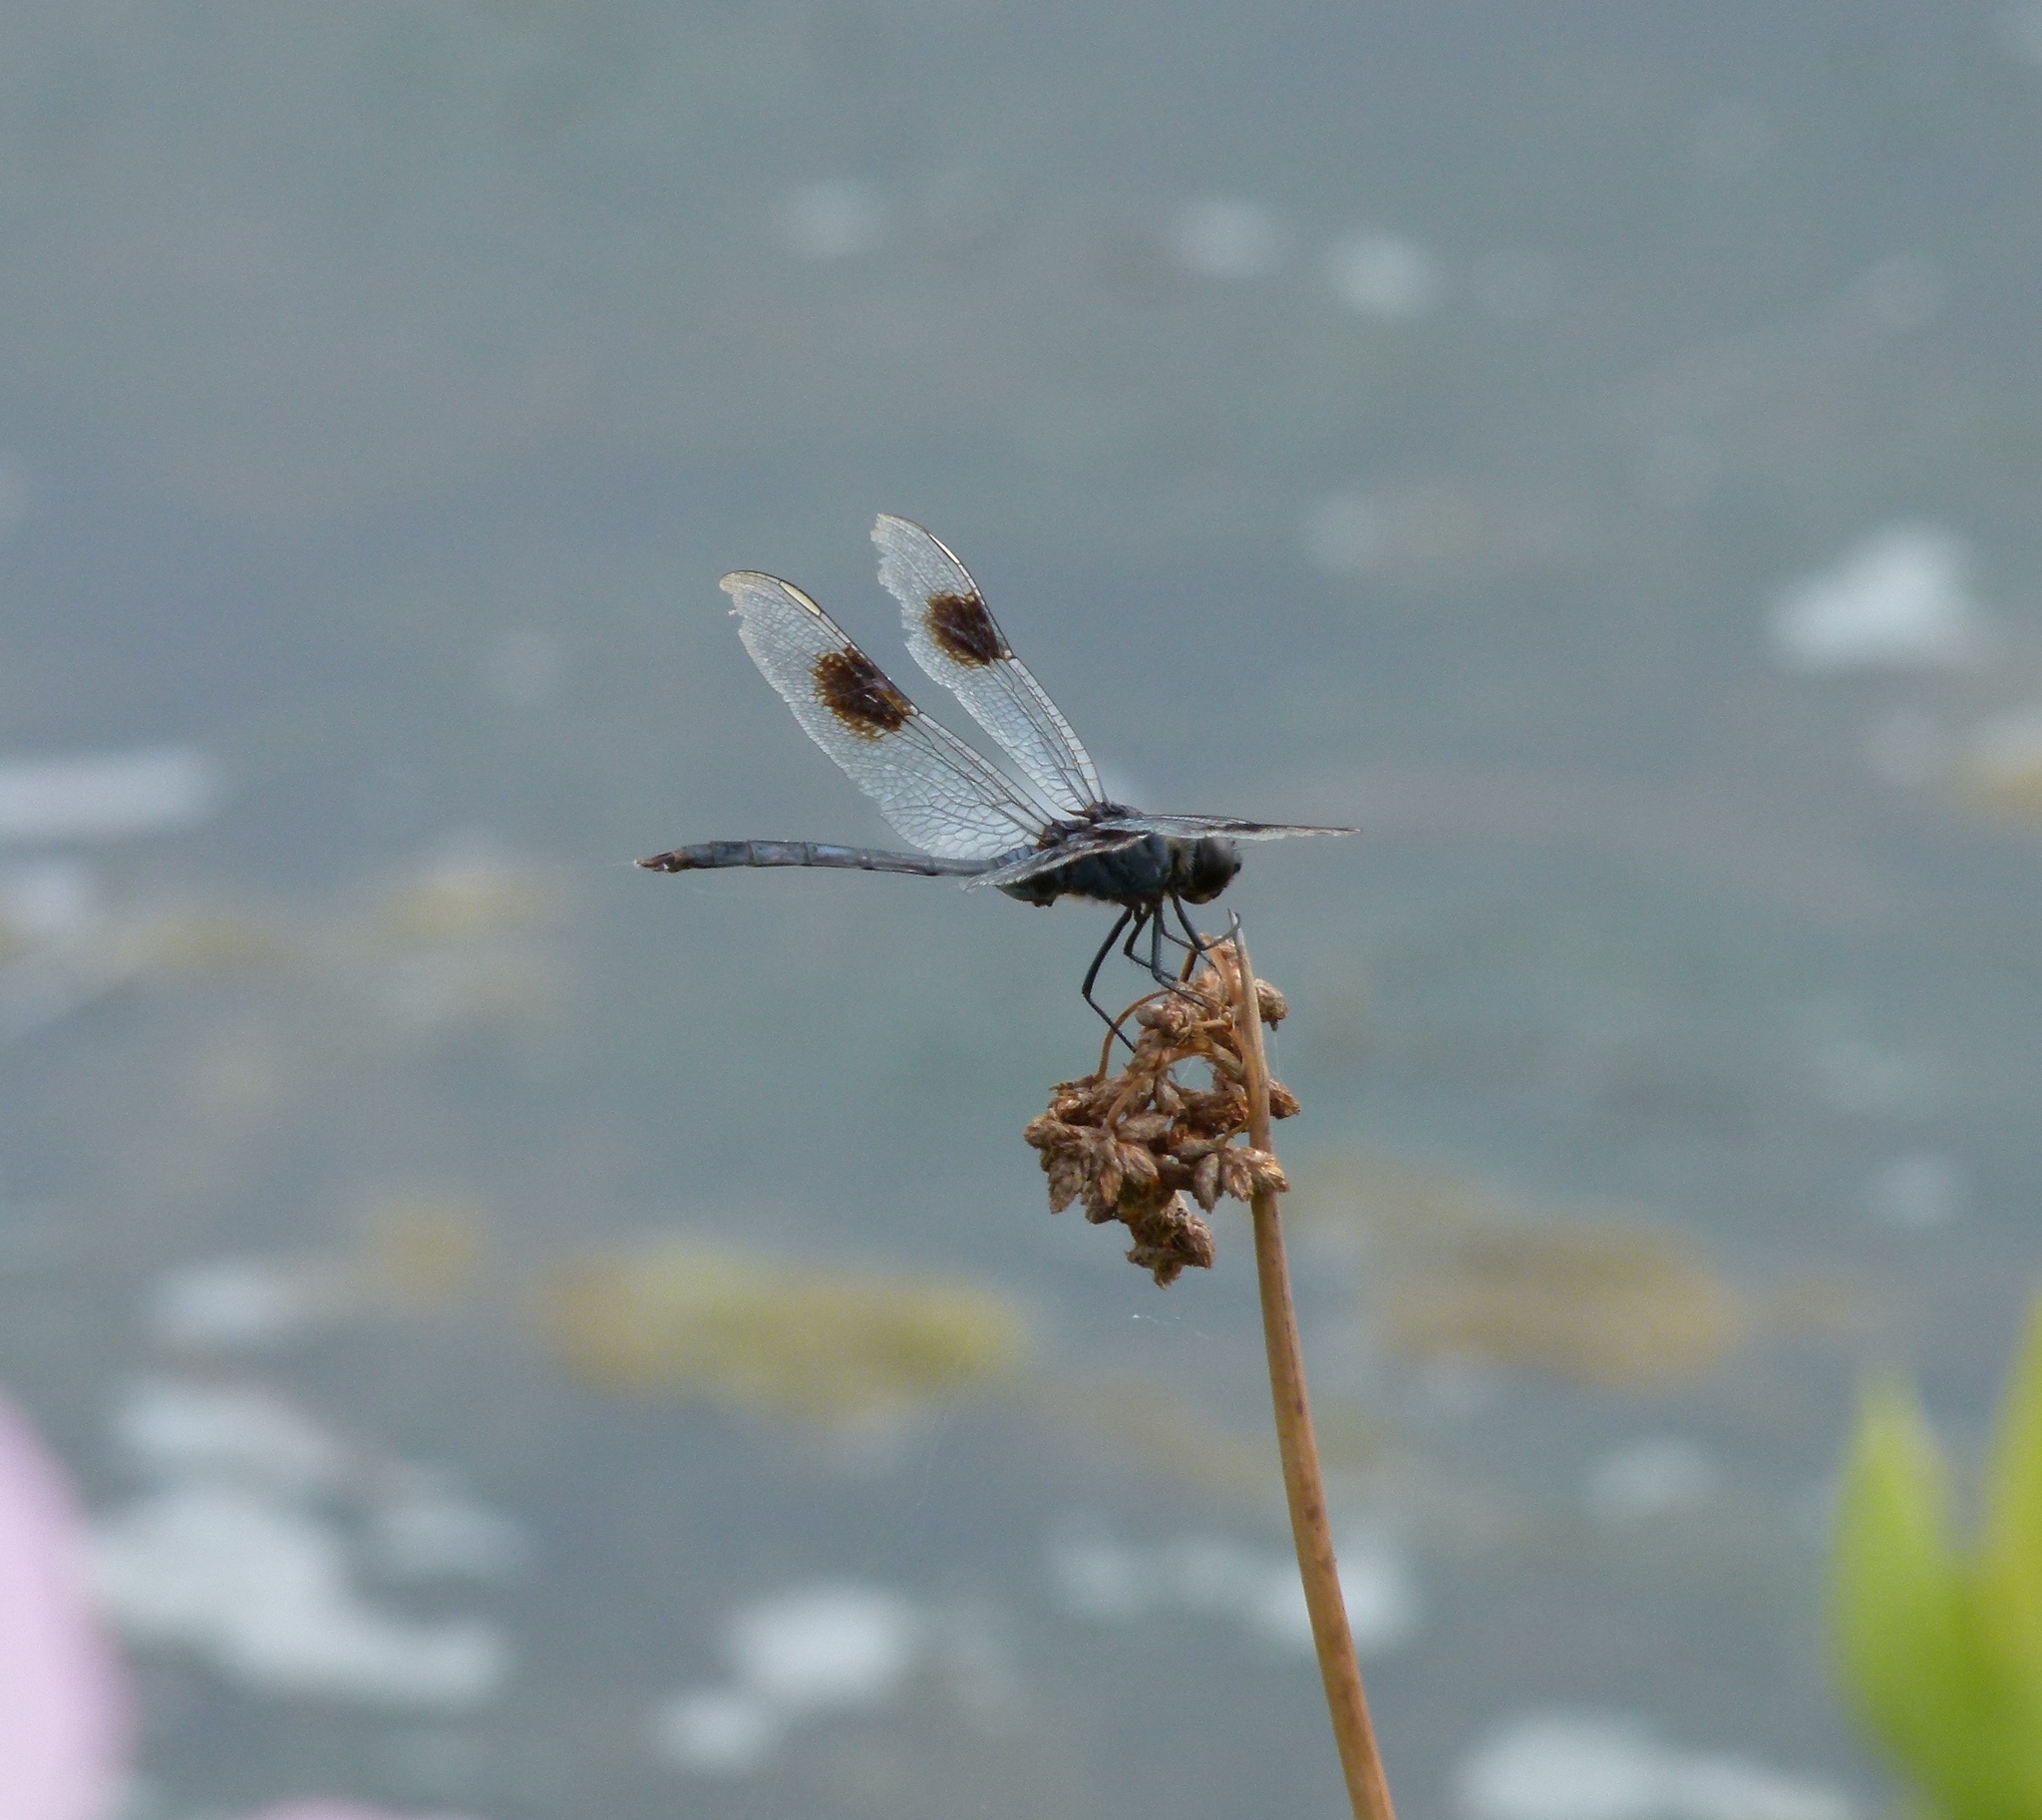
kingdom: Animalia
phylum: Arthropoda
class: Insecta
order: Odonata
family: Libellulidae
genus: Brachymesia
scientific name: Brachymesia gravida
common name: Four-spotted pennant
